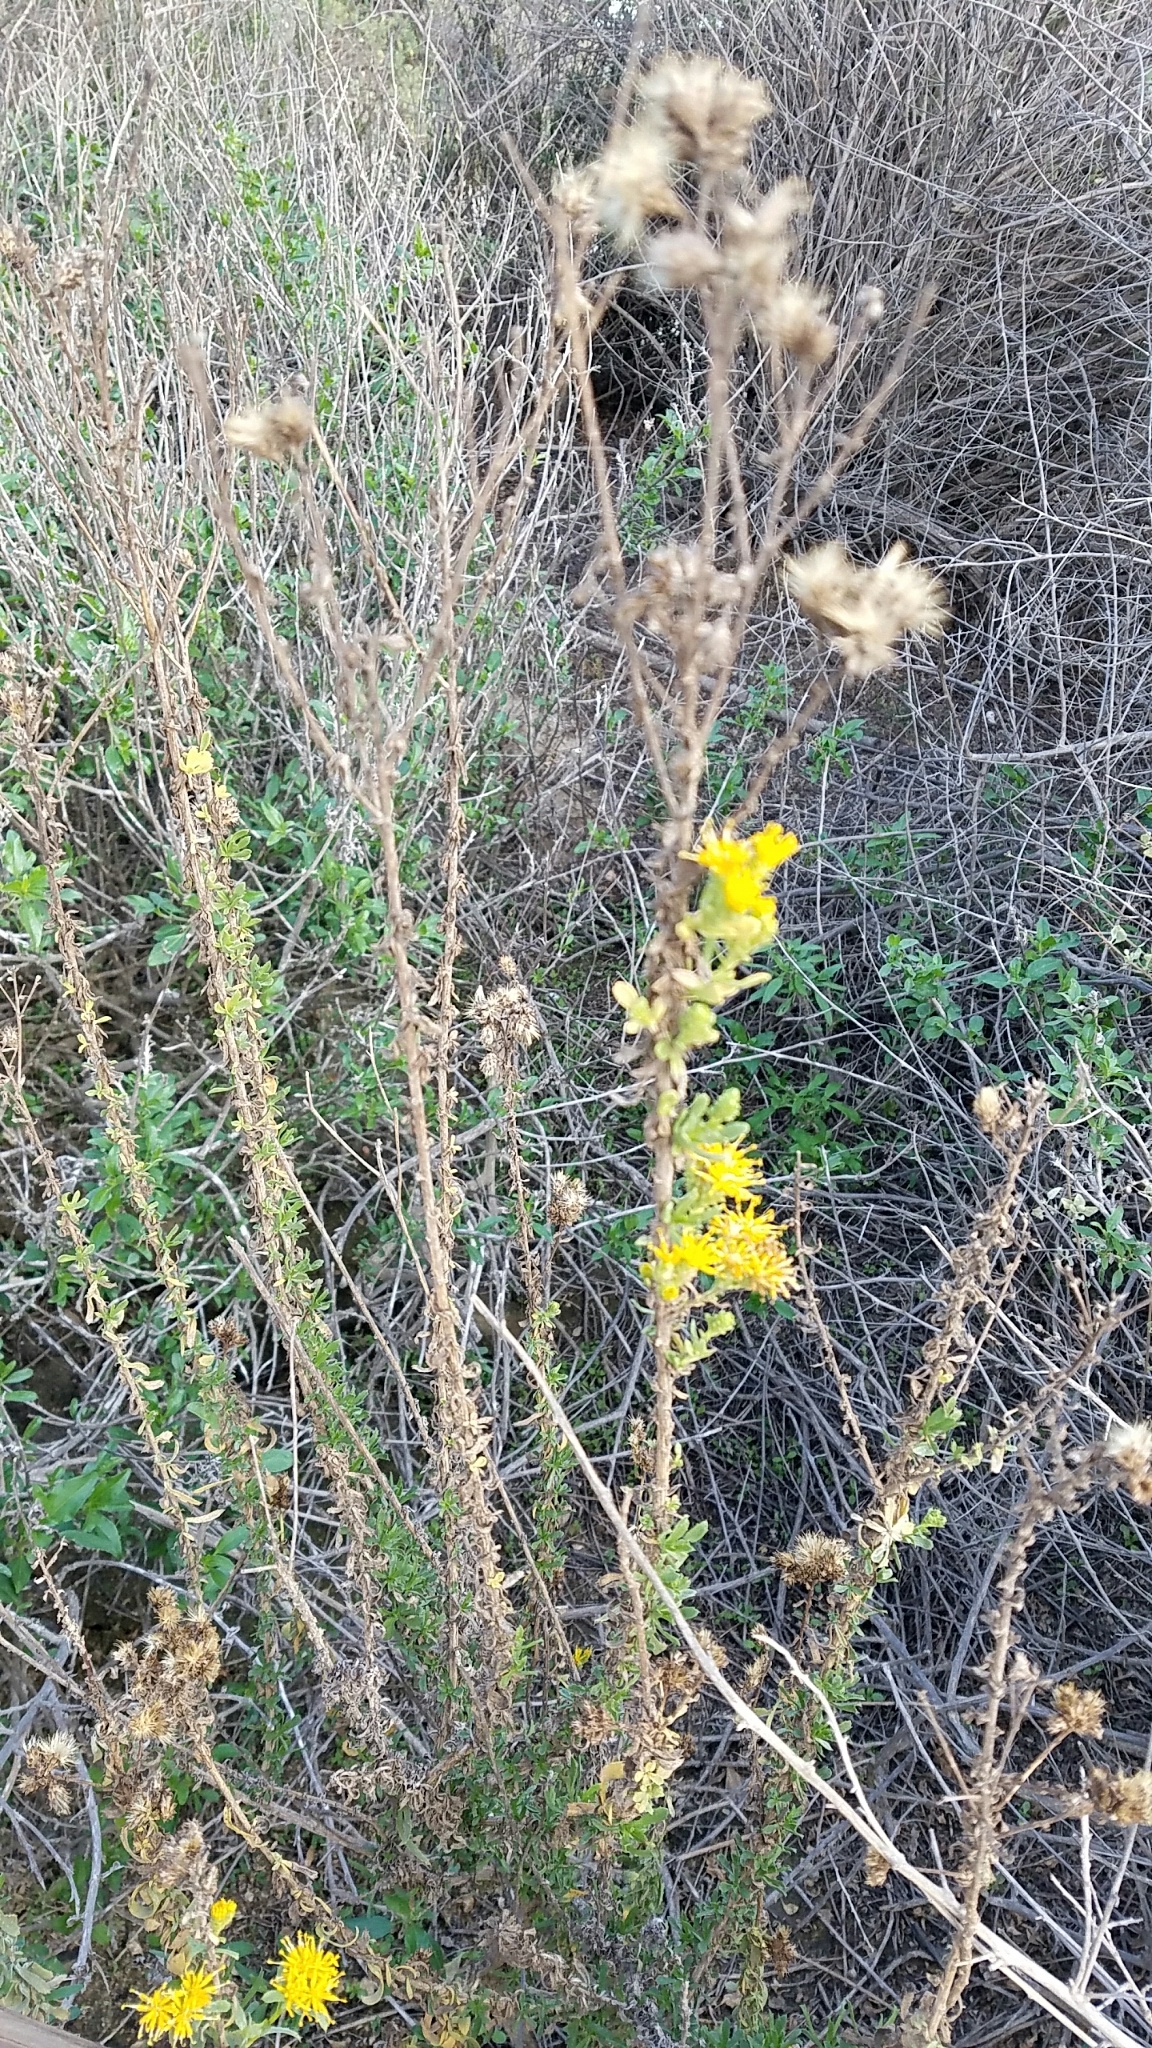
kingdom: Plantae
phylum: Tracheophyta
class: Magnoliopsida
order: Asterales
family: Asteraceae
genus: Isocoma
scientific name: Isocoma menziesii
